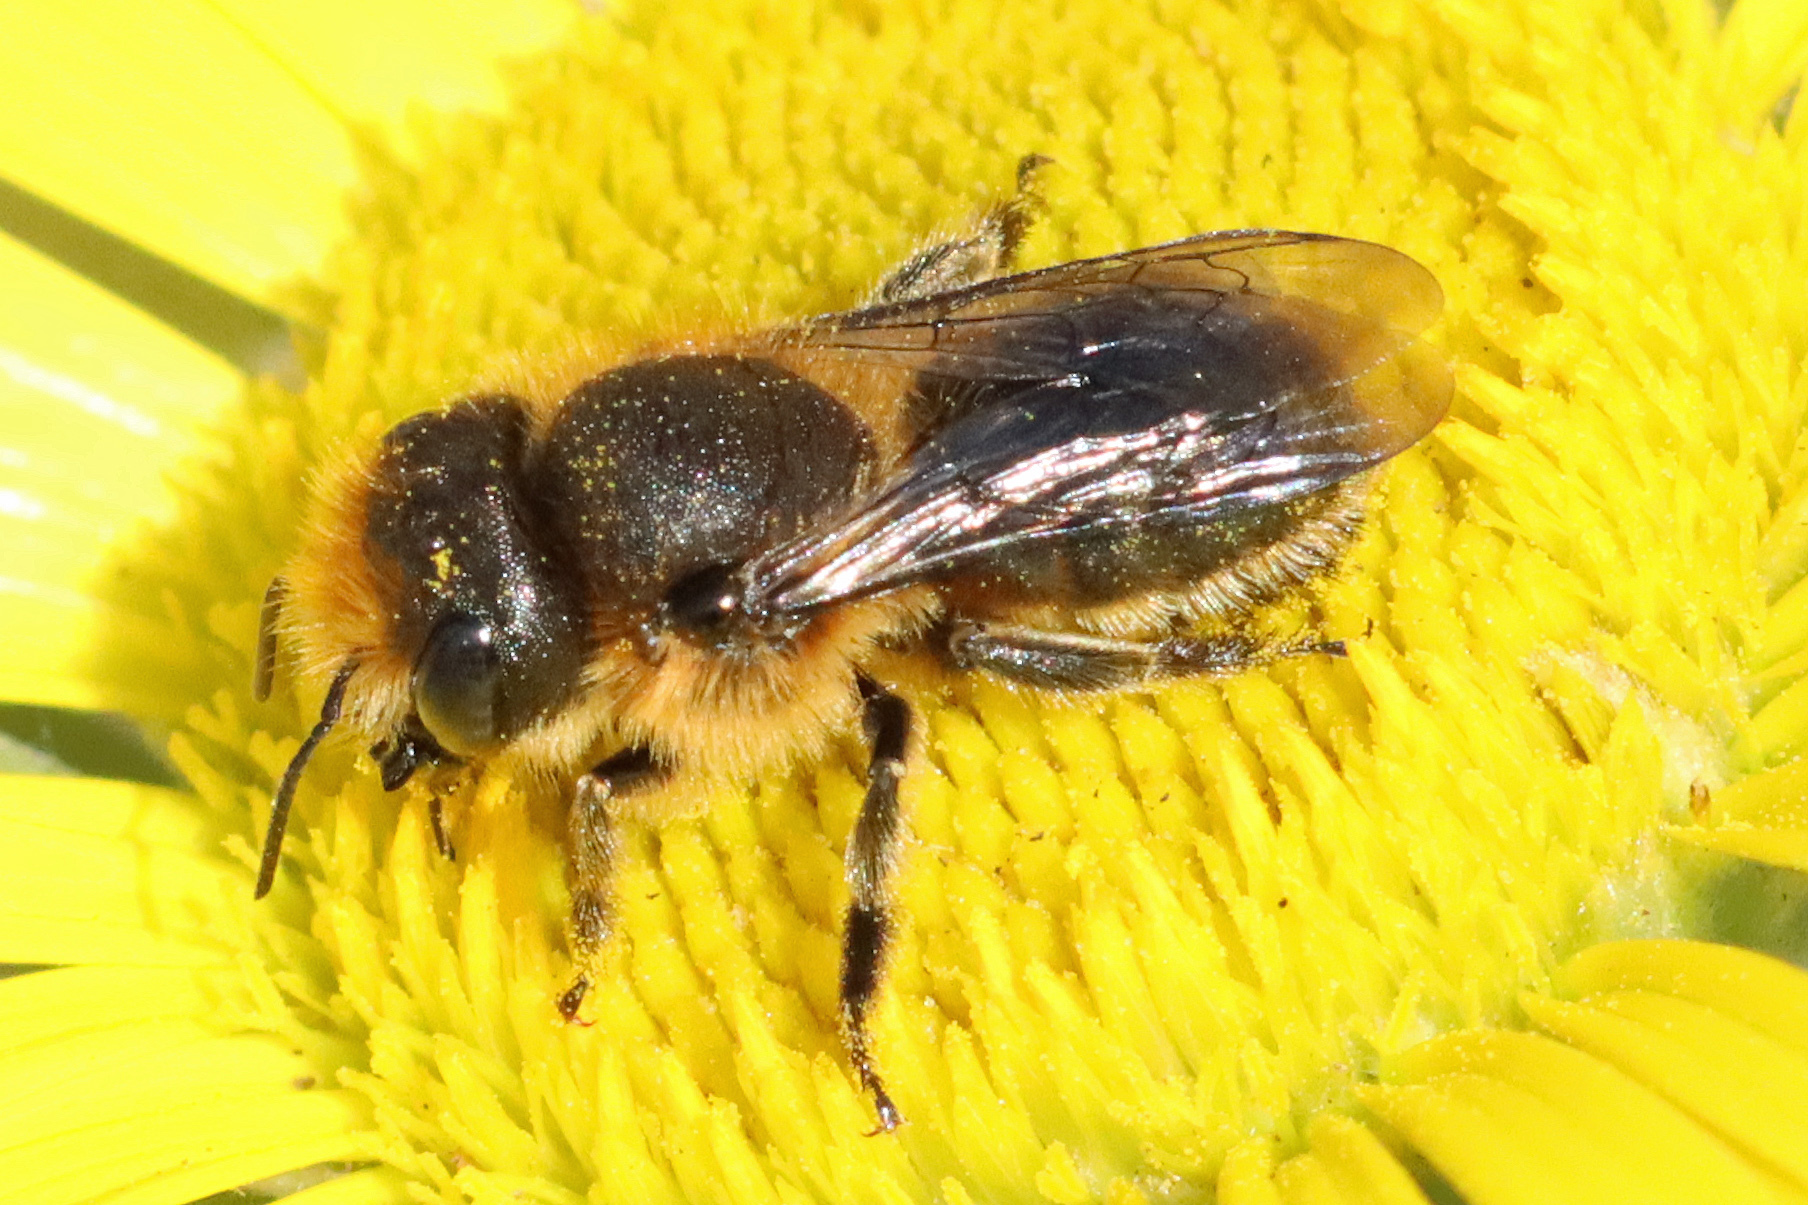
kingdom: Animalia
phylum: Arthropoda
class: Insecta
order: Hymenoptera
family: Megachilidae
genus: Osmia
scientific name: Osmia latreillei
